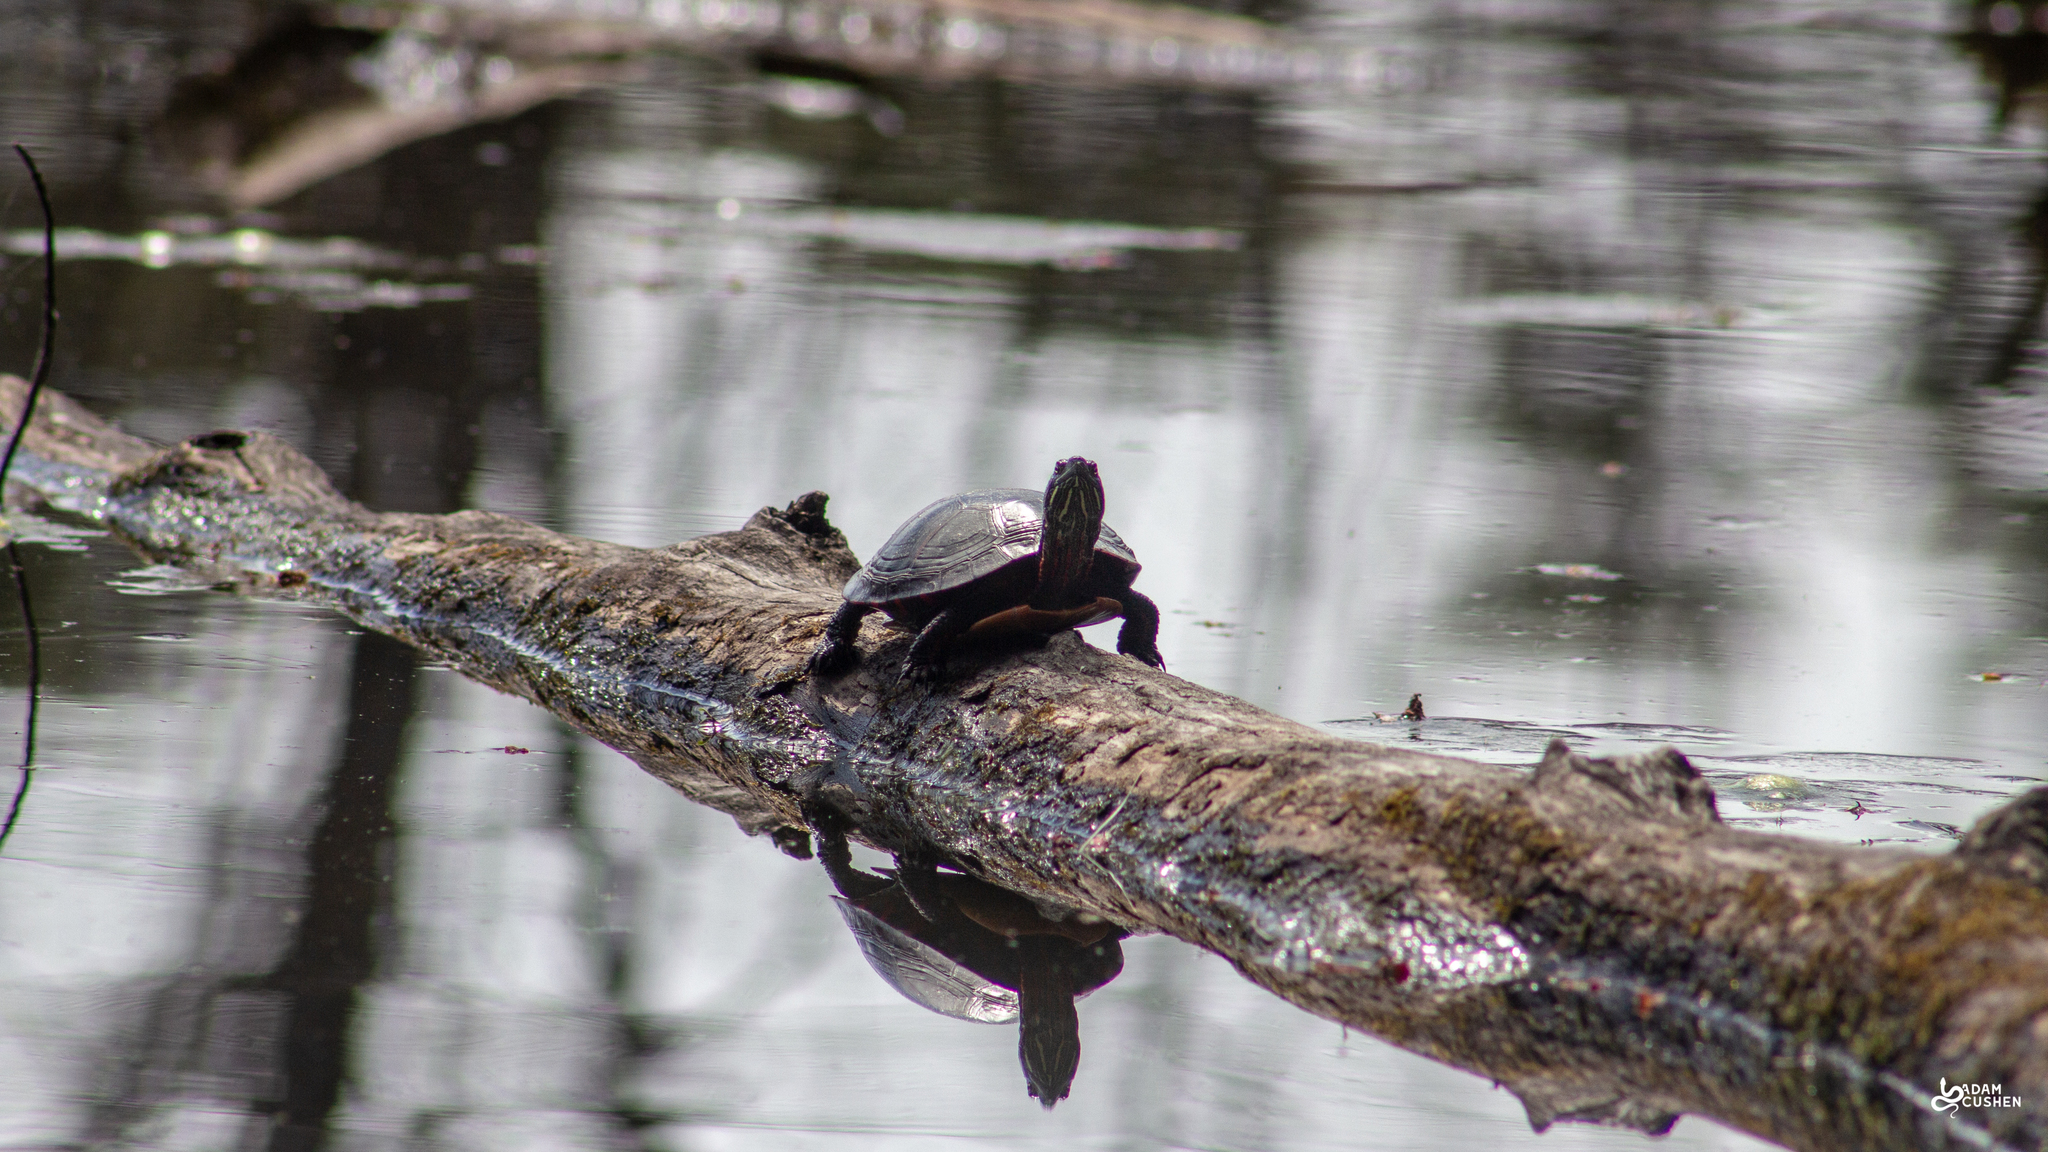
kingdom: Animalia
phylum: Chordata
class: Testudines
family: Emydidae
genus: Chrysemys
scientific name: Chrysemys picta
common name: Painted turtle
